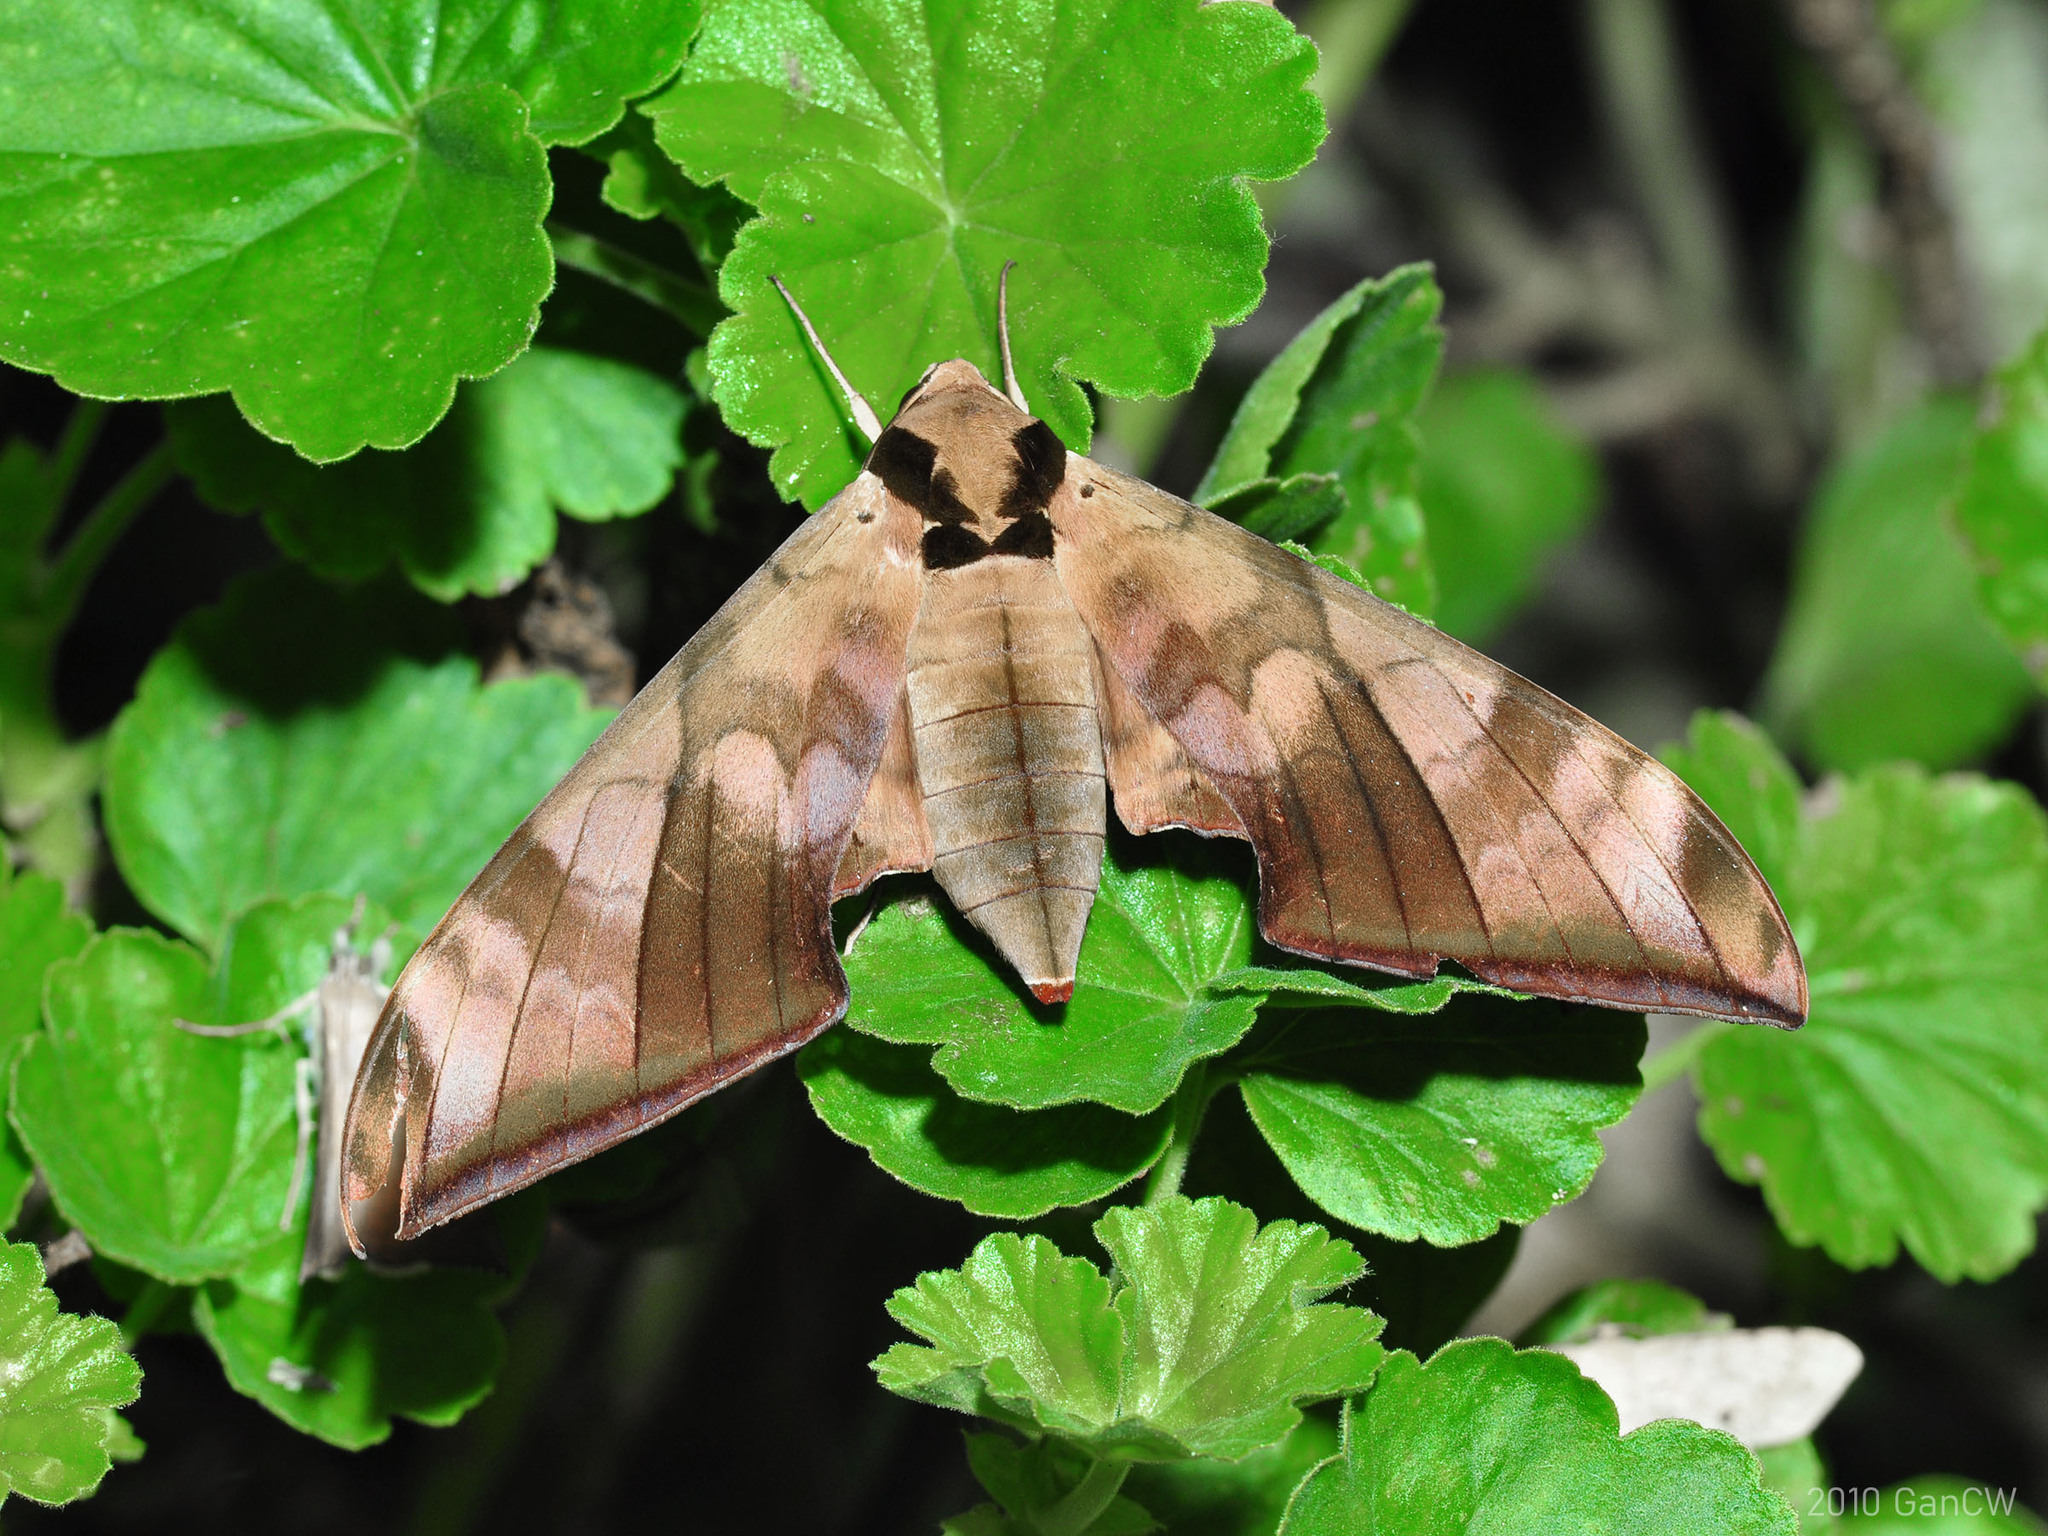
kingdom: Animalia
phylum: Arthropoda
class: Insecta
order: Lepidoptera
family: Sphingidae
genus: Ambulyx
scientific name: Ambulyx tattina
